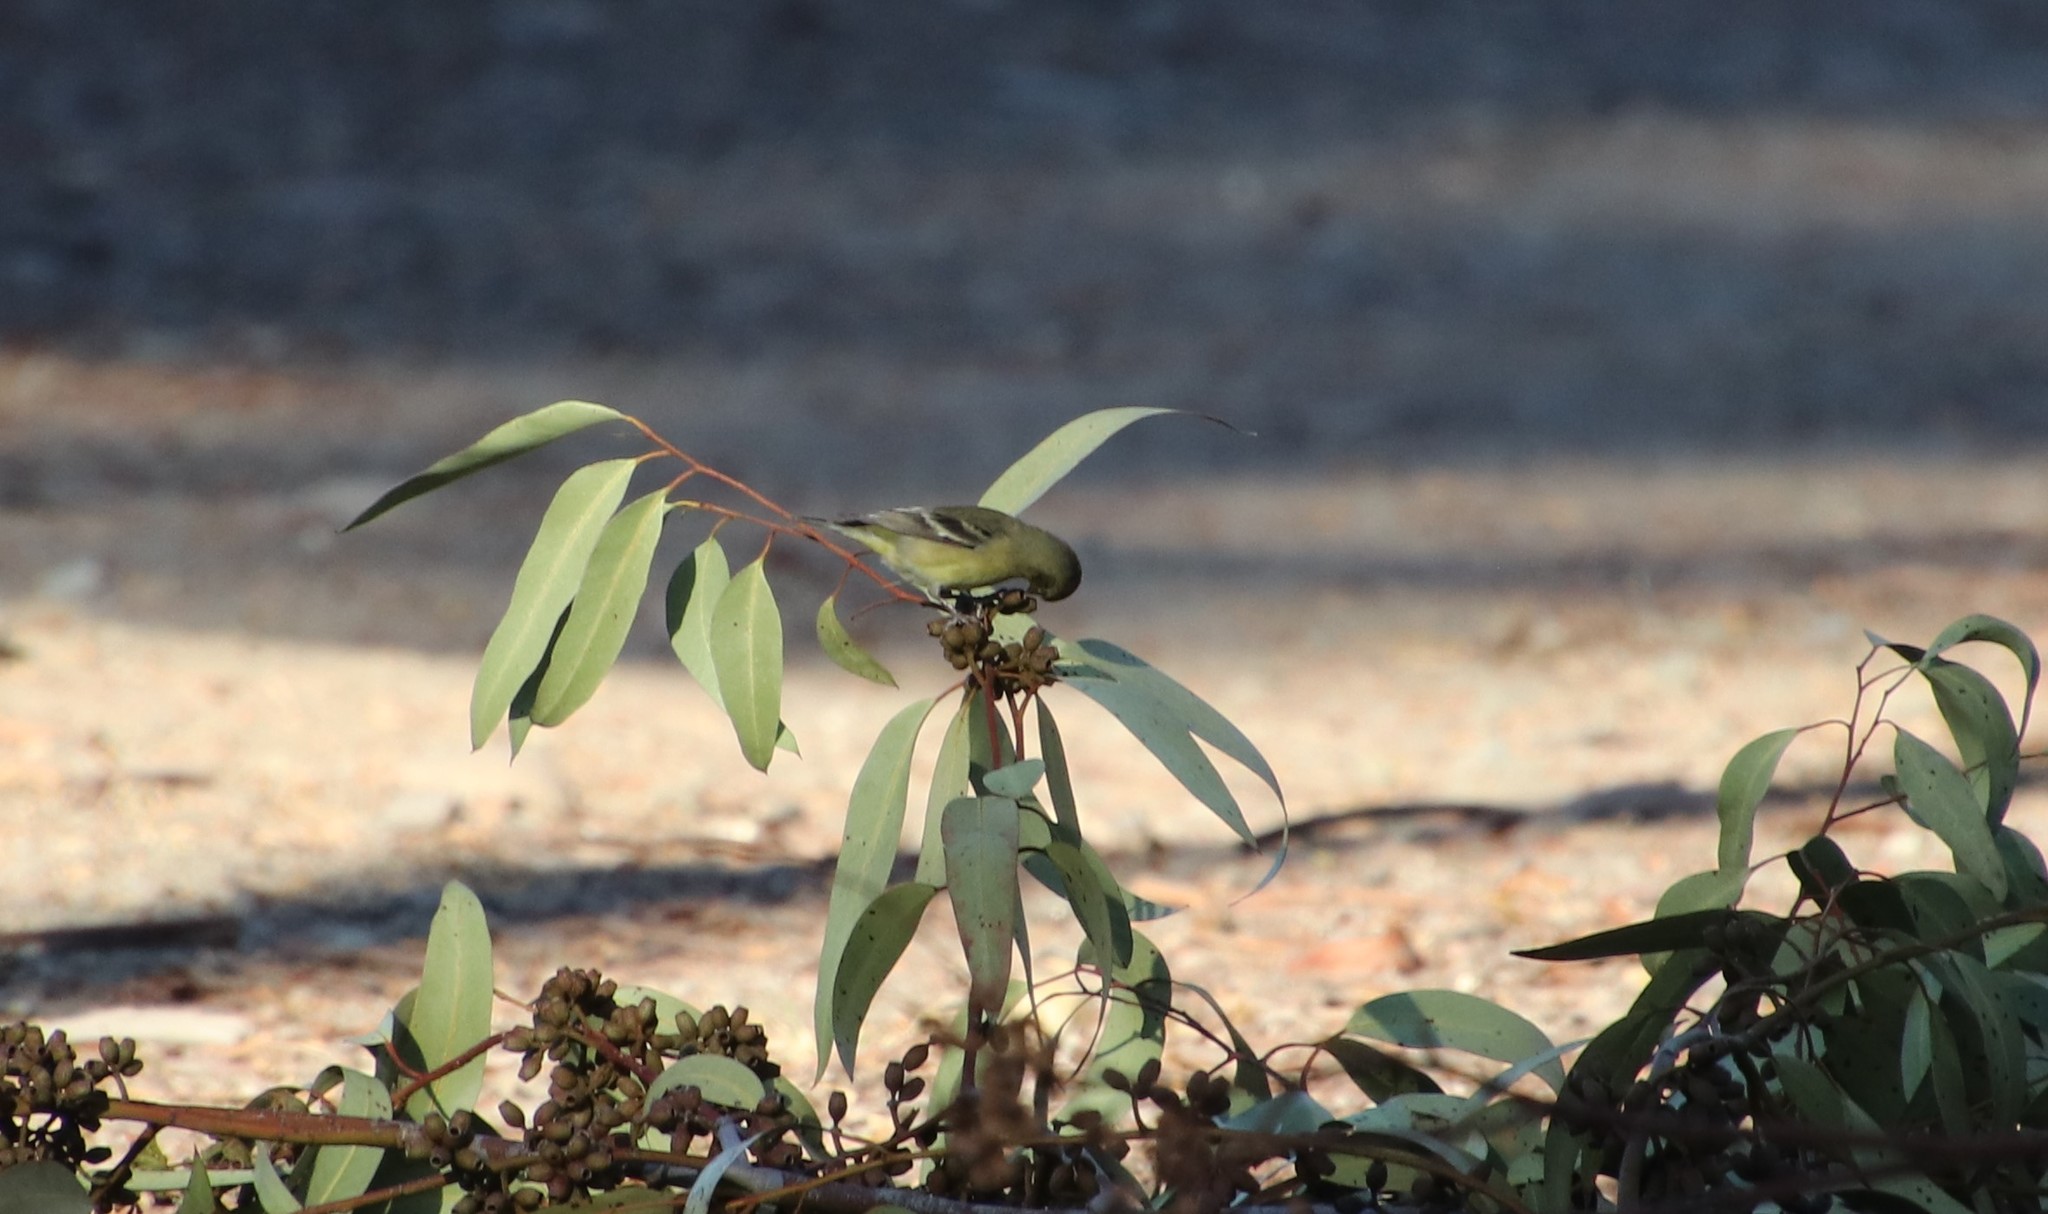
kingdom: Animalia
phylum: Chordata
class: Aves
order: Passeriformes
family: Fringillidae
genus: Spinus
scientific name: Spinus psaltria
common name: Lesser goldfinch
